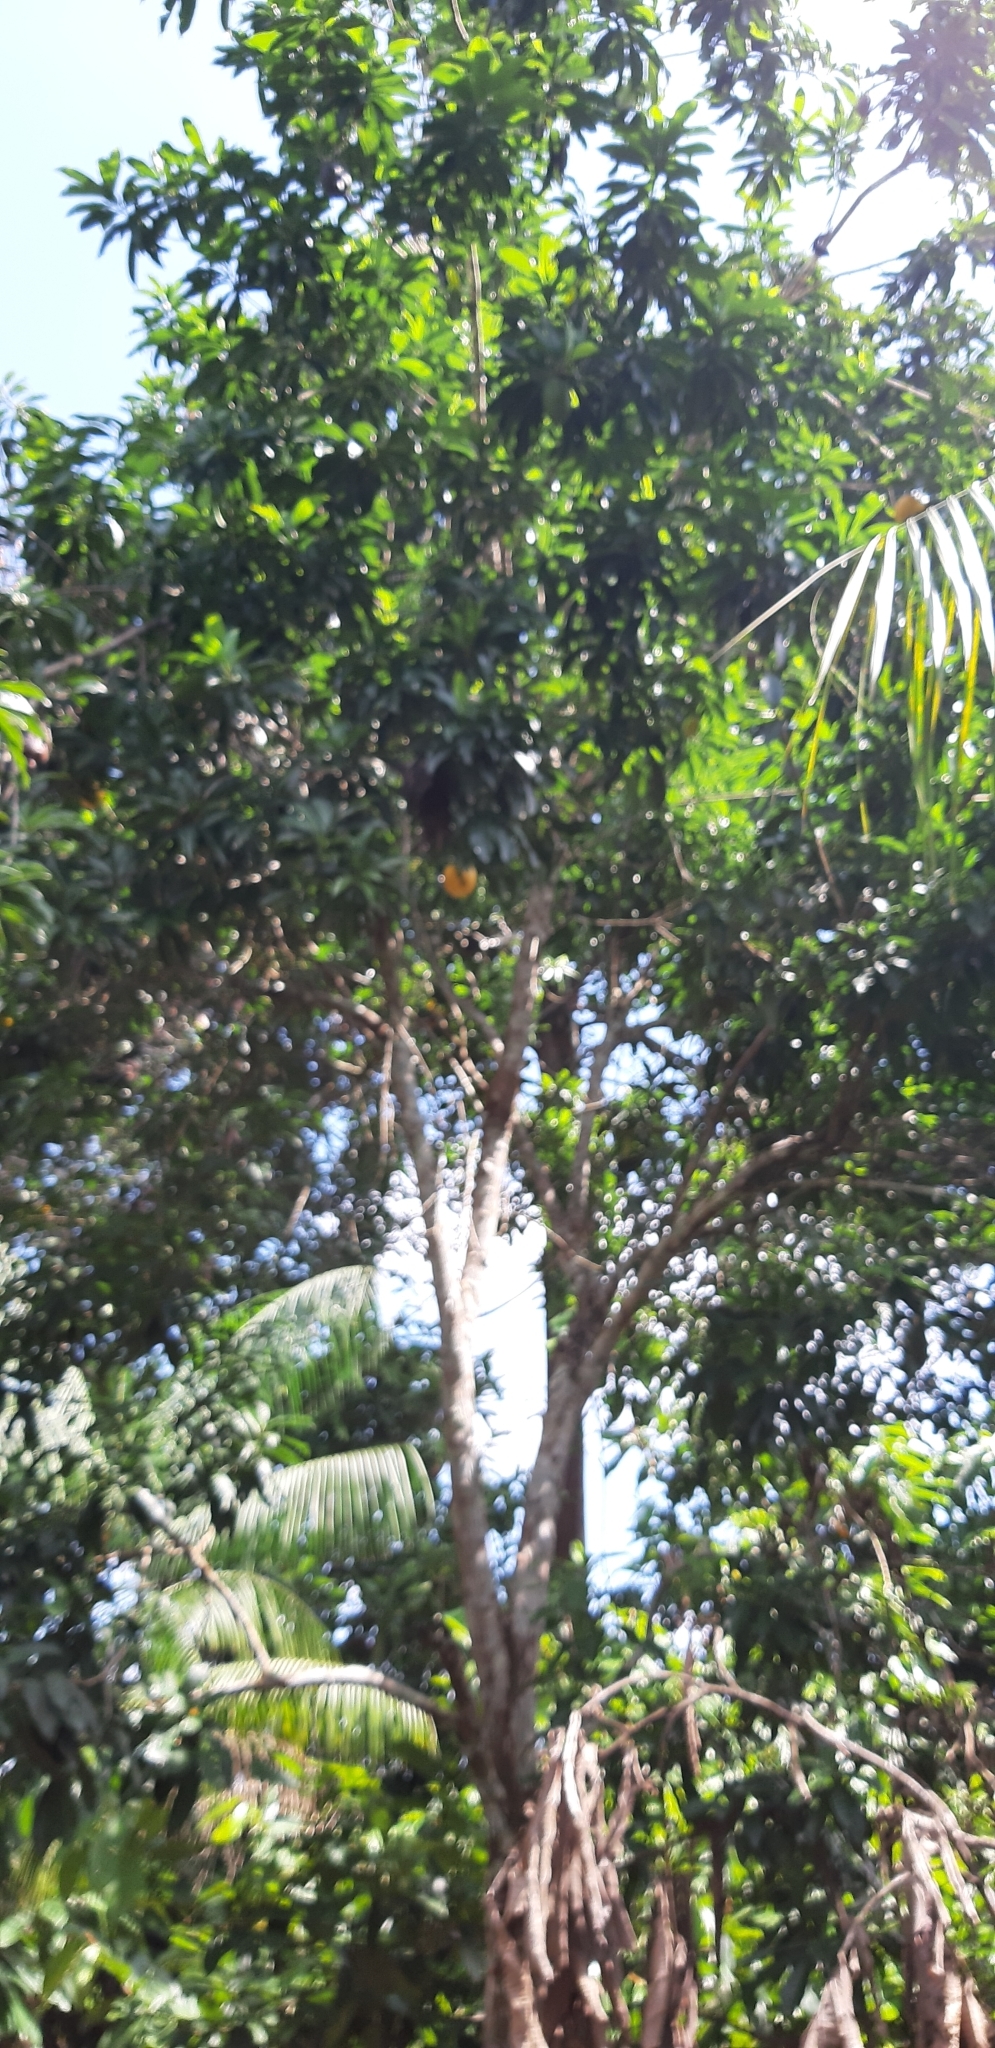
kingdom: Plantae
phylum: Tracheophyta
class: Magnoliopsida
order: Ericales
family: Sapotaceae
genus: Pouteria
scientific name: Pouteria caimito
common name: Caimito
